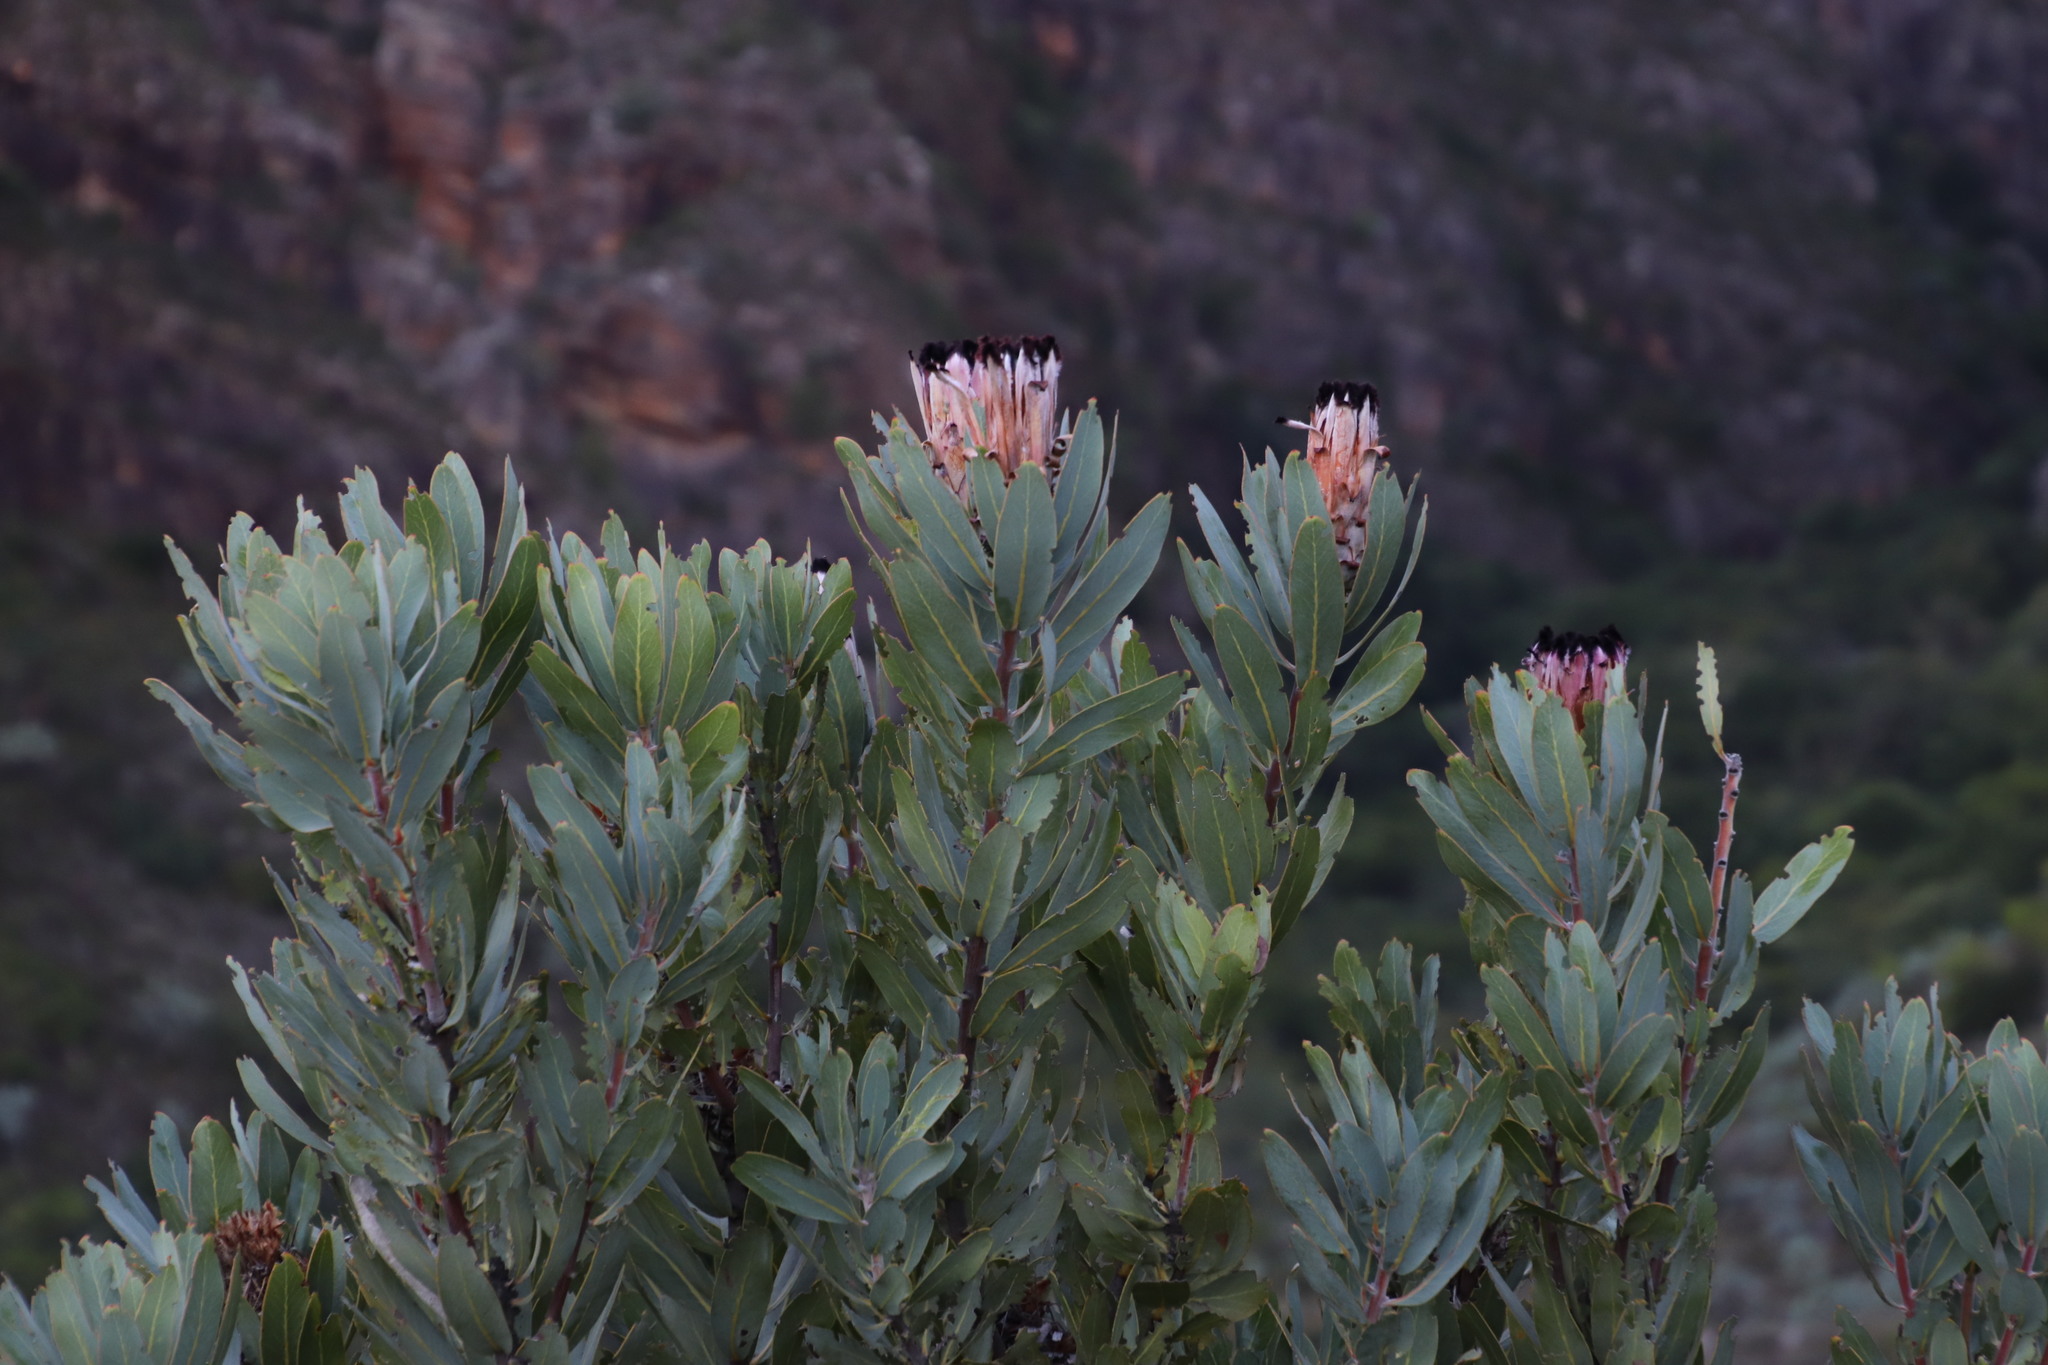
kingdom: Plantae
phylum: Tracheophyta
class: Magnoliopsida
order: Proteales
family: Proteaceae
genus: Protea
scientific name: Protea laurifolia
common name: Grey-leaf sugarbsh
